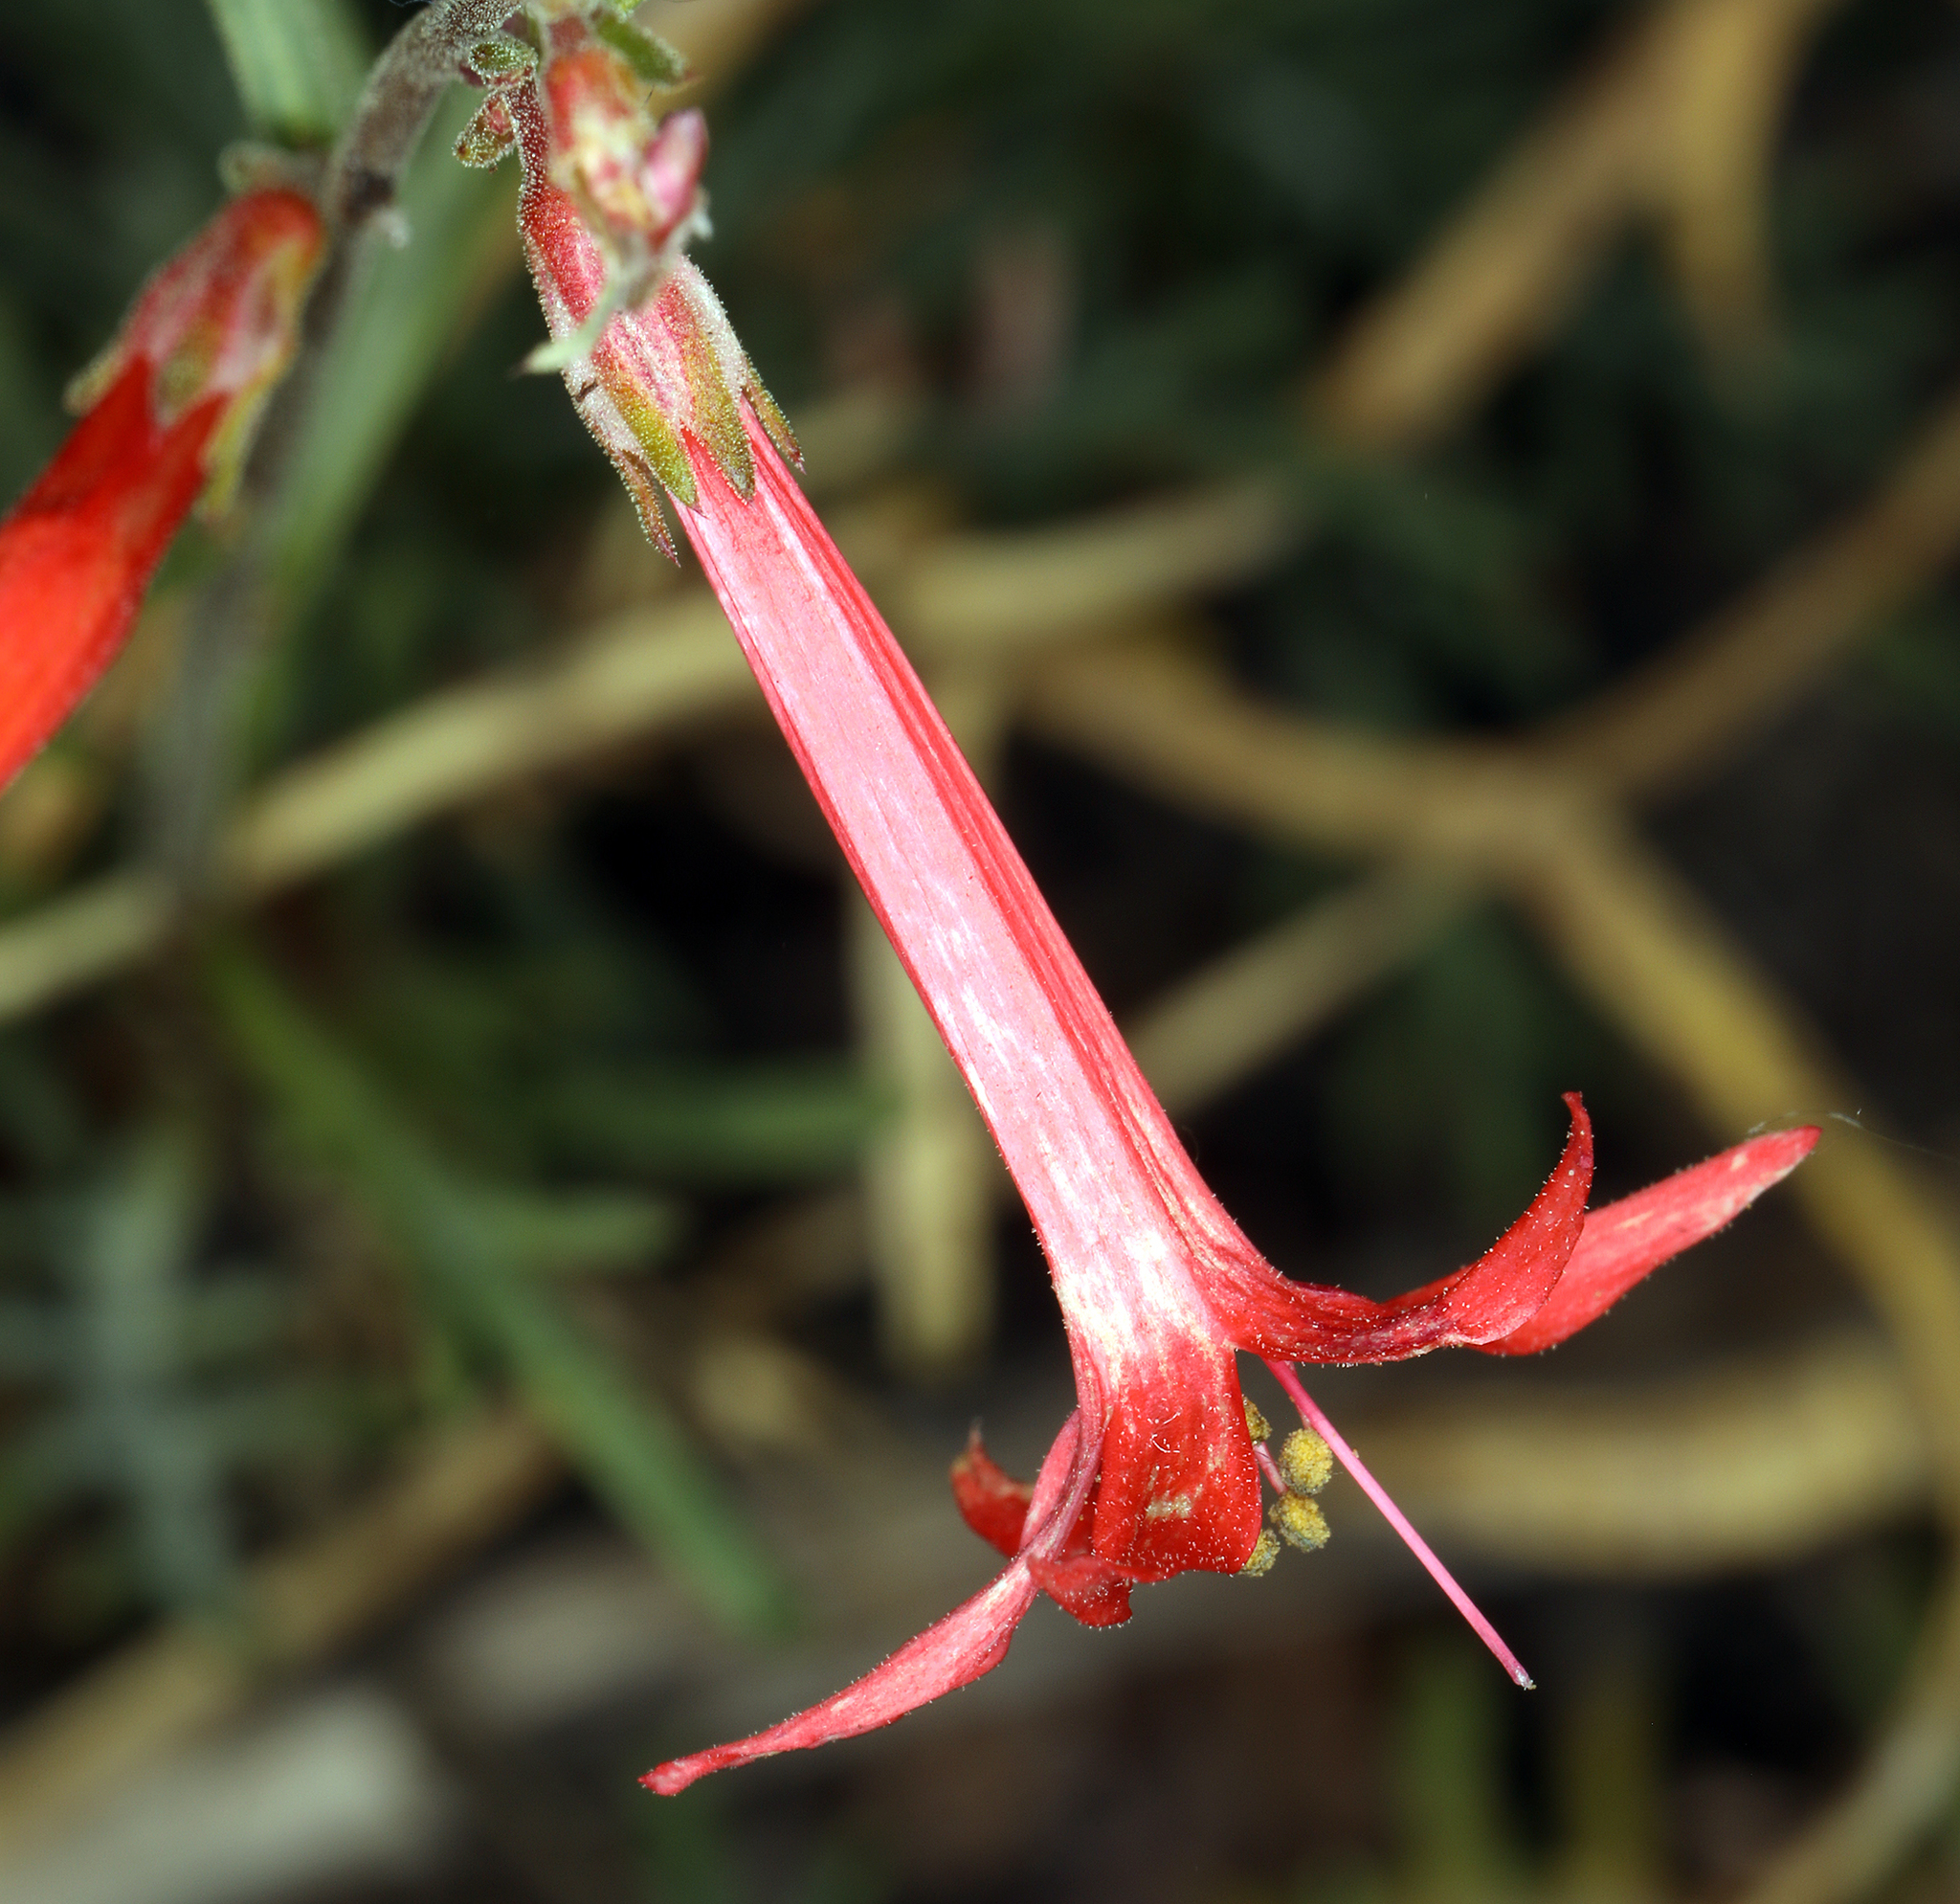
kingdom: Plantae
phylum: Tracheophyta
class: Magnoliopsida
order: Ericales
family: Polemoniaceae
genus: Ipomopsis
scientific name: Ipomopsis aggregata
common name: Scarlet gilia
